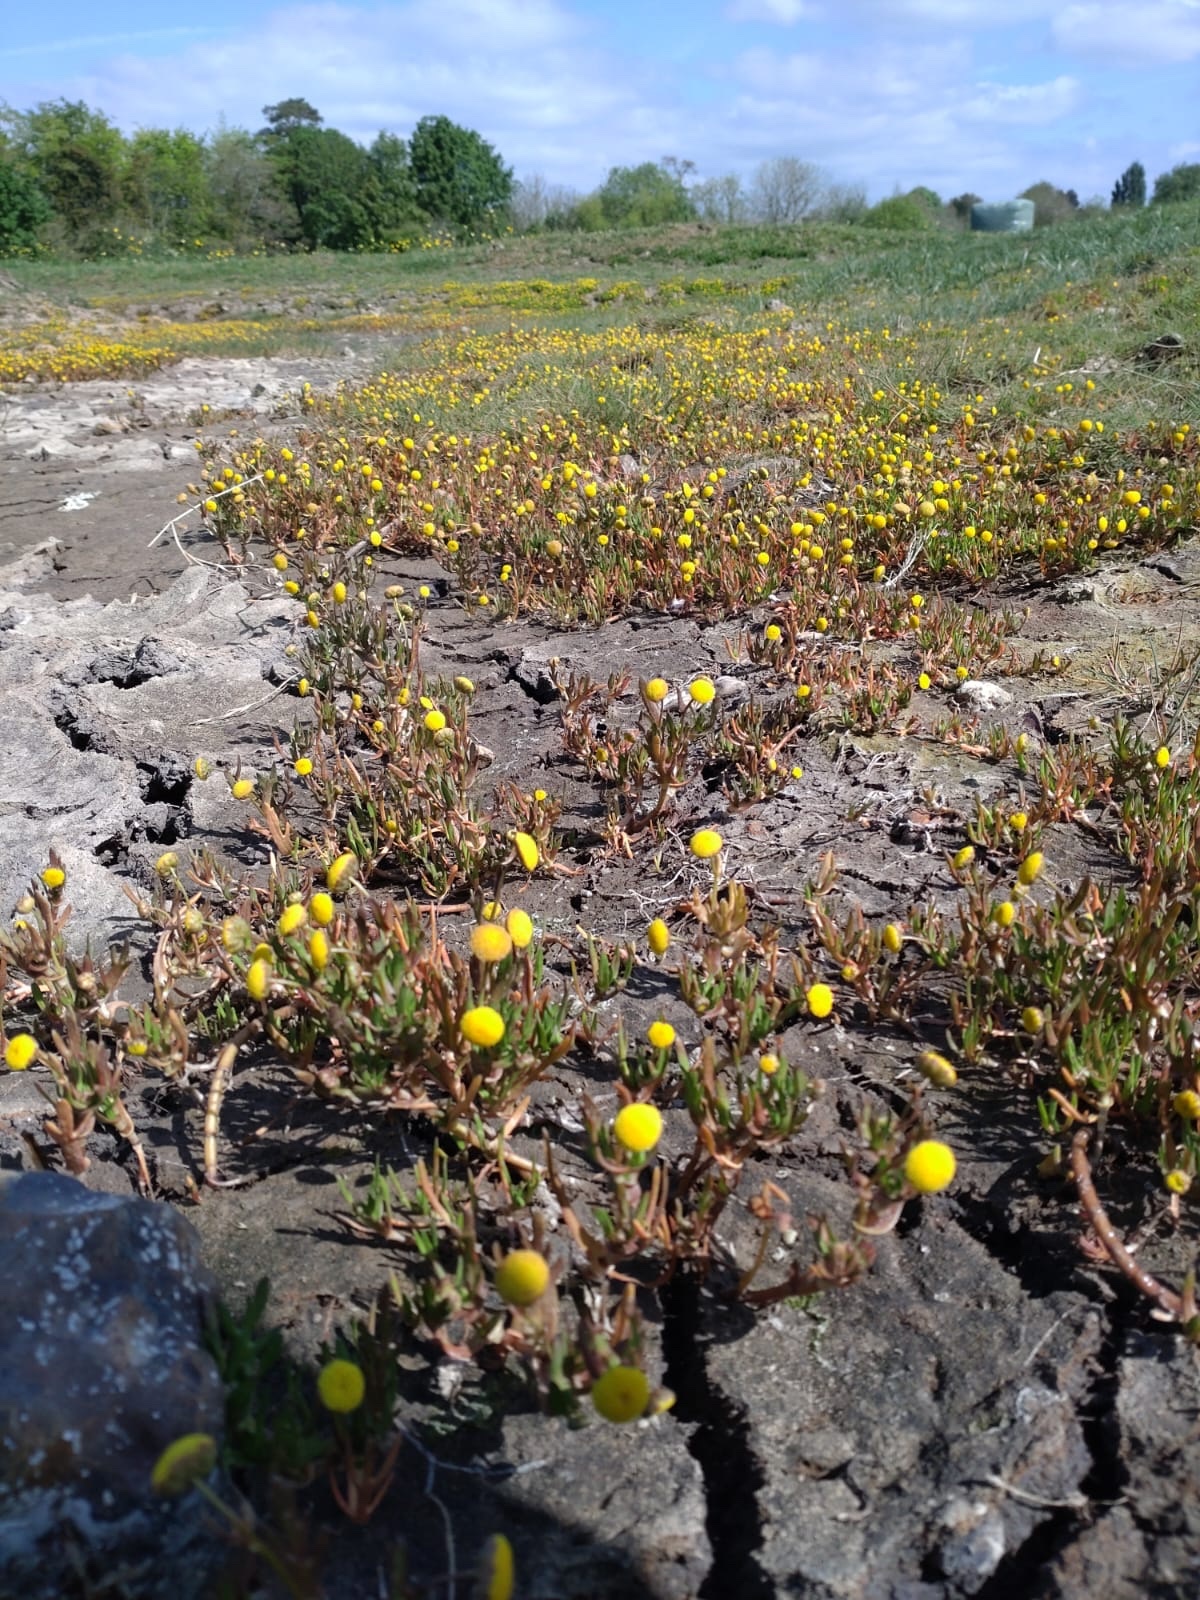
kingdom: Plantae
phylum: Tracheophyta
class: Magnoliopsida
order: Asterales
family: Asteraceae
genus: Cotula
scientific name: Cotula coronopifolia
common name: Buttonweed
